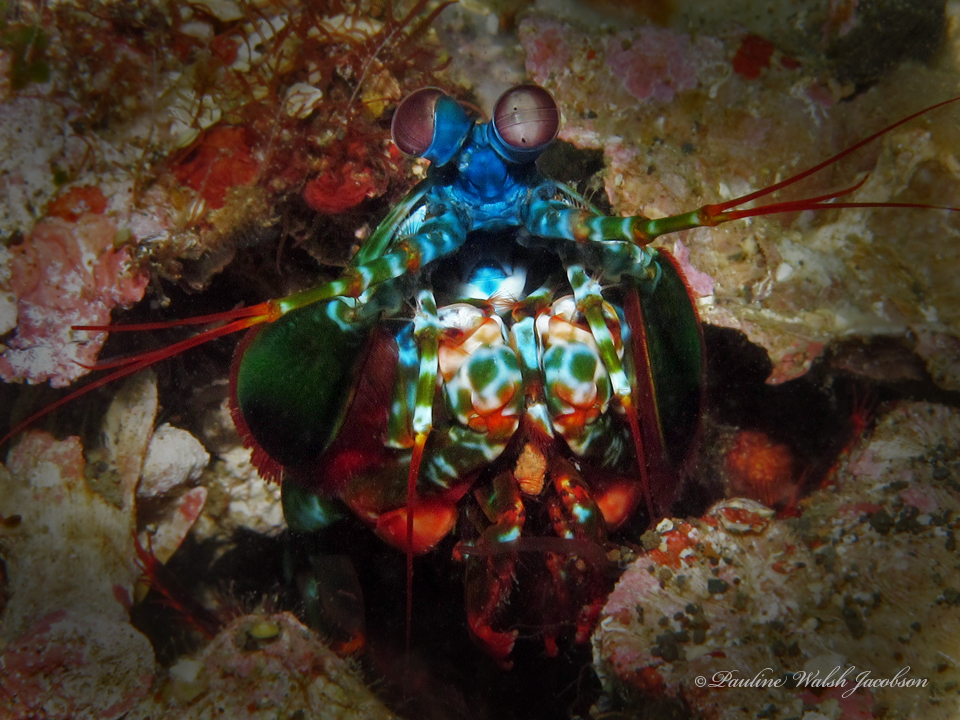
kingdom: Animalia
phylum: Arthropoda
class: Malacostraca
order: Stomatopoda
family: Odontodactylidae
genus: Odontodactylus
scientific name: Odontodactylus scyllarus
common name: Peacock mantis shrimp
